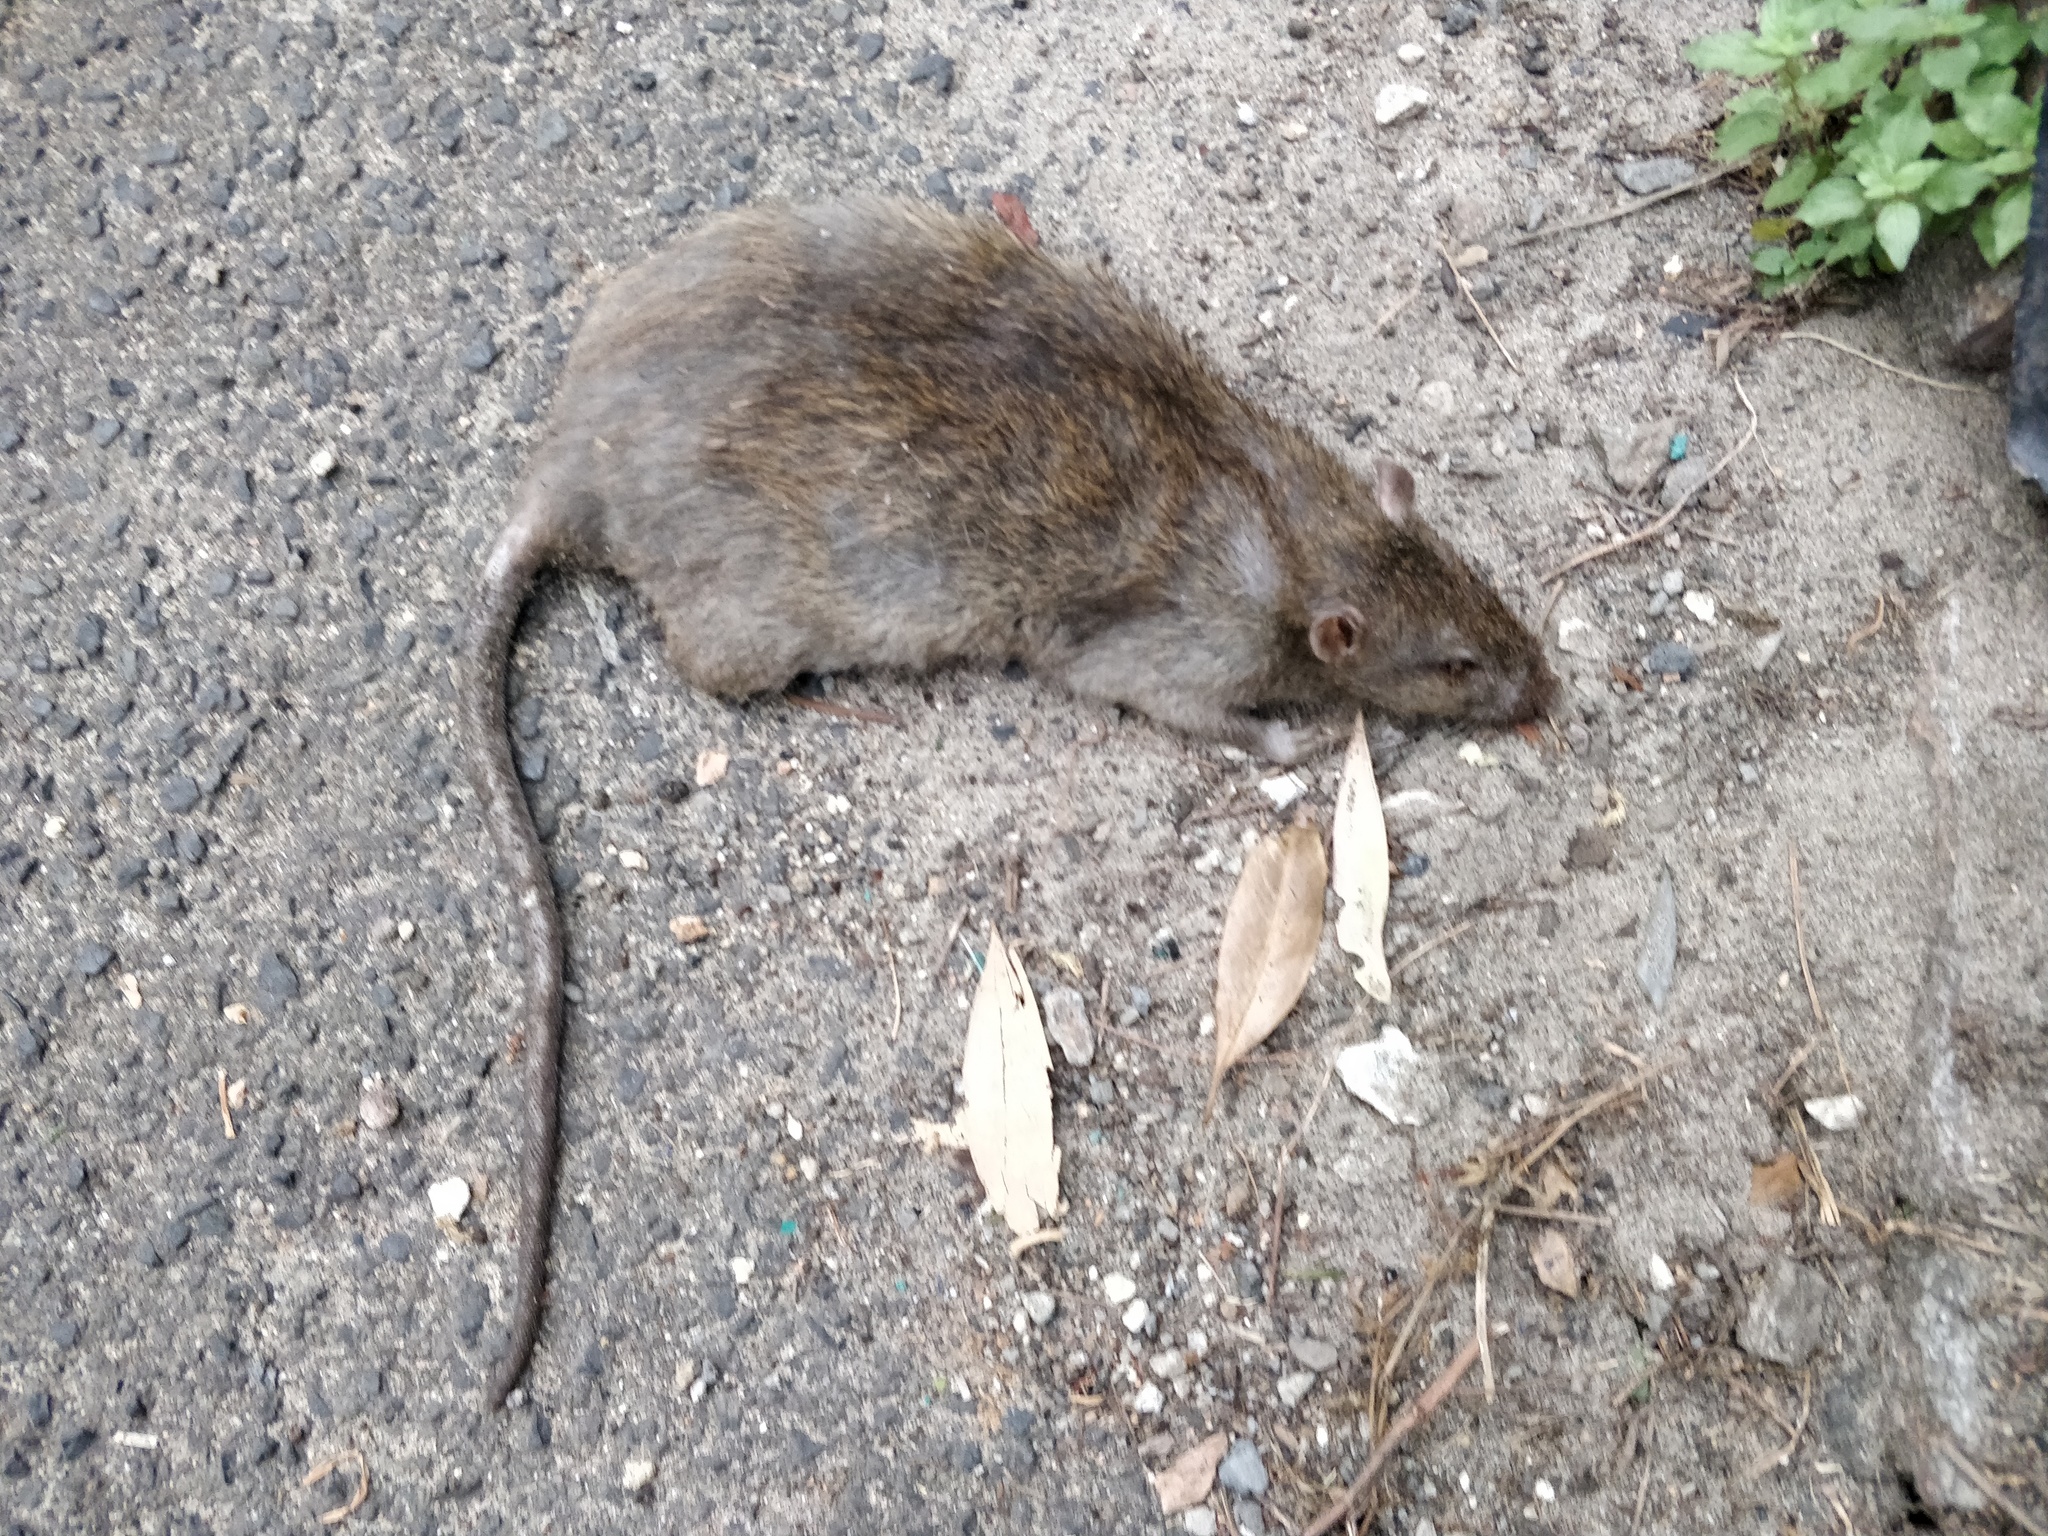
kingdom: Animalia
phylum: Chordata
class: Mammalia
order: Rodentia
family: Muridae
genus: Rattus
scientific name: Rattus norvegicus
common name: Brown rat
